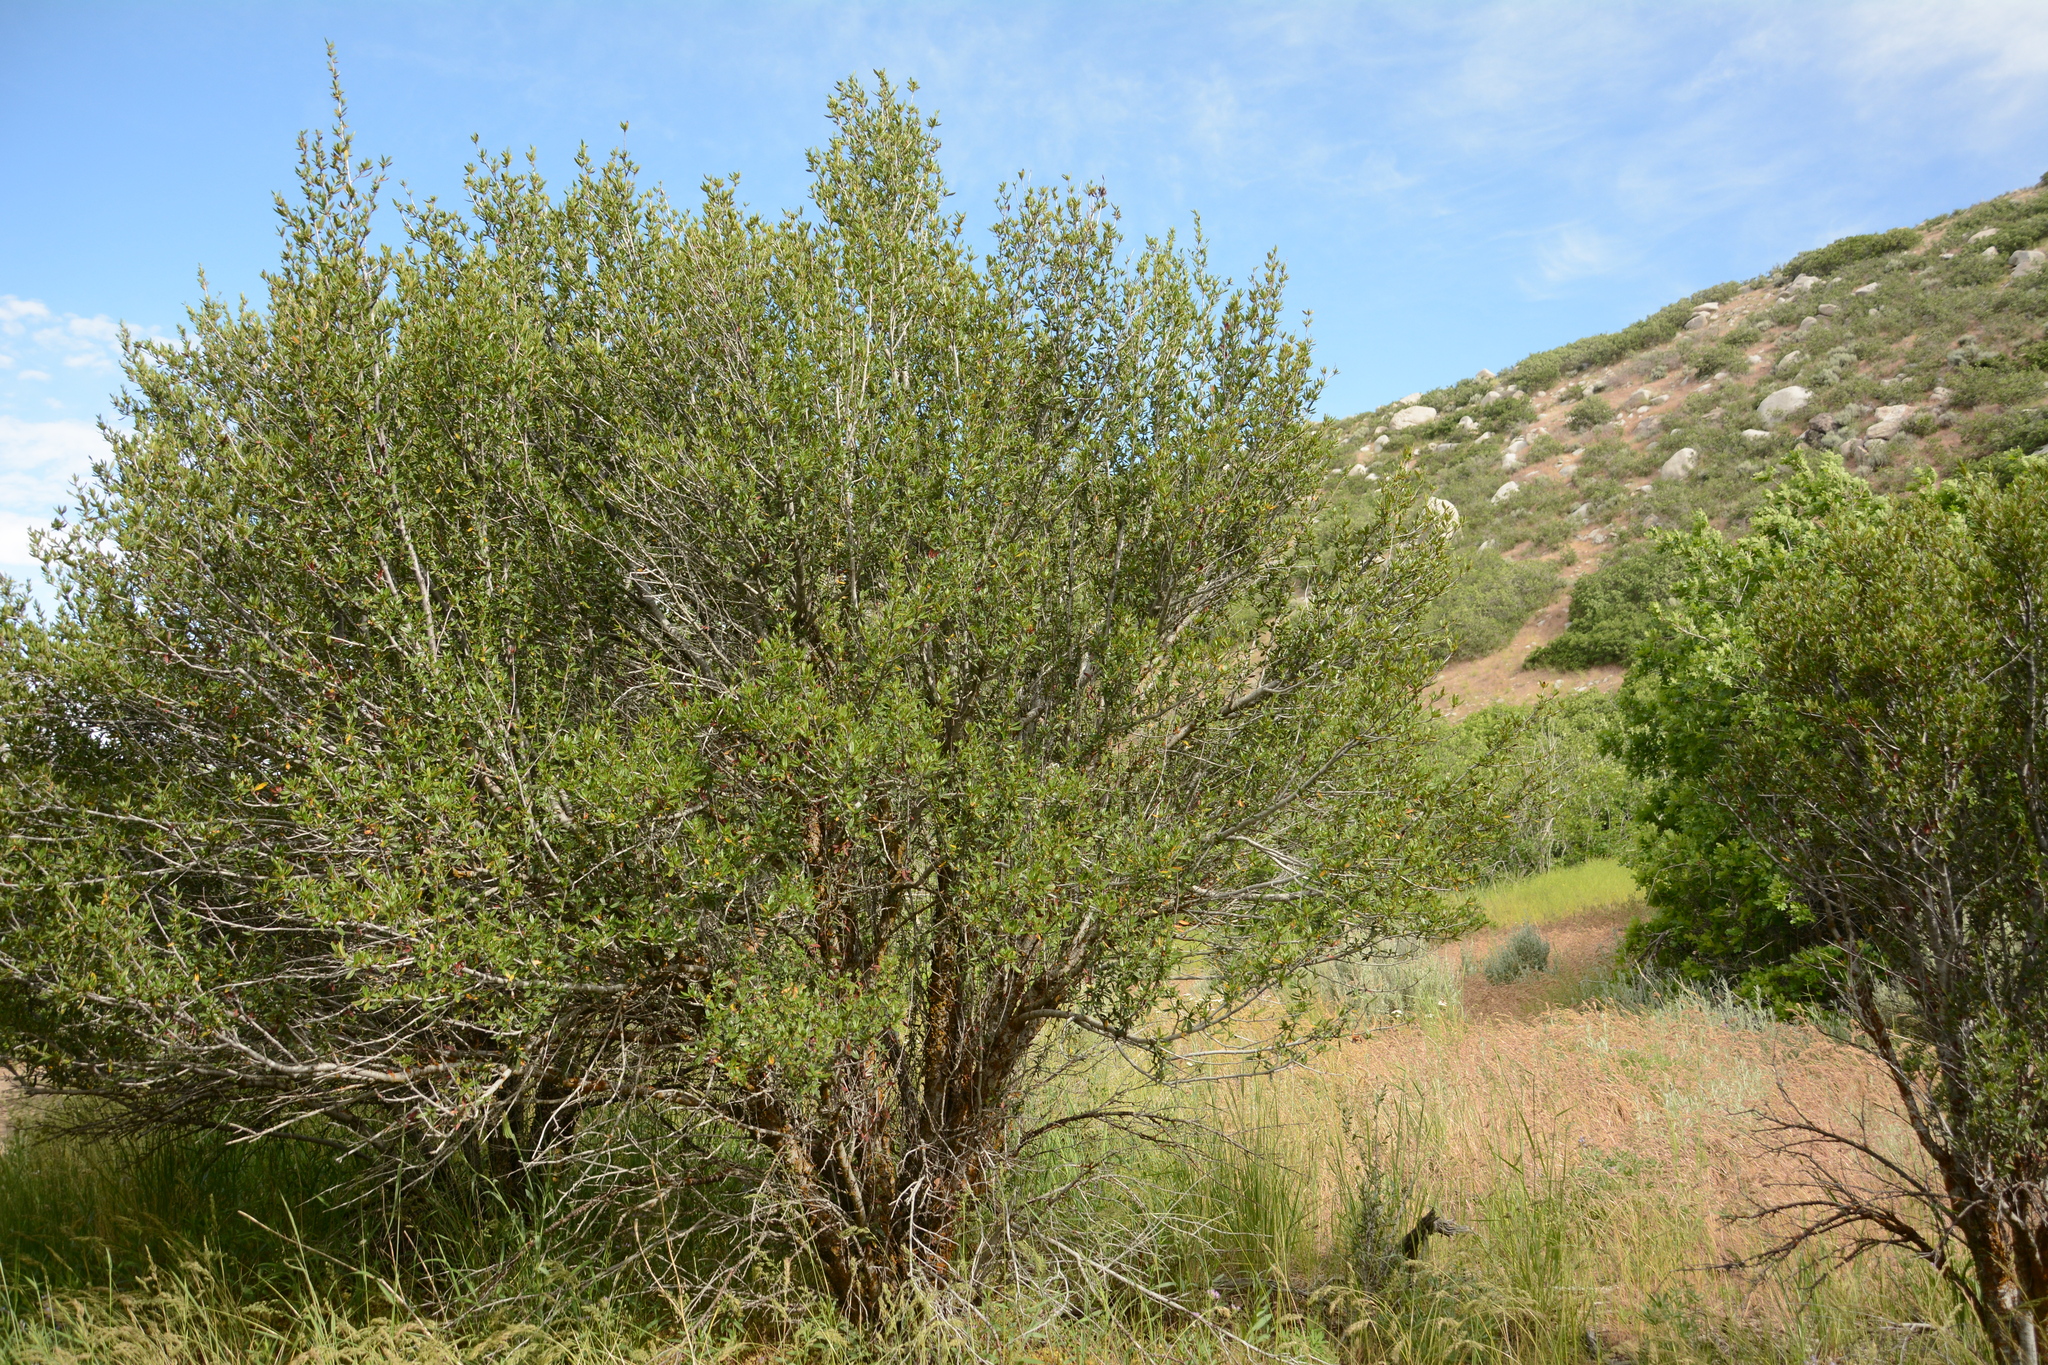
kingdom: Plantae
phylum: Tracheophyta
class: Magnoliopsida
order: Rosales
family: Rosaceae
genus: Cercocarpus
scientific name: Cercocarpus ledifolius
